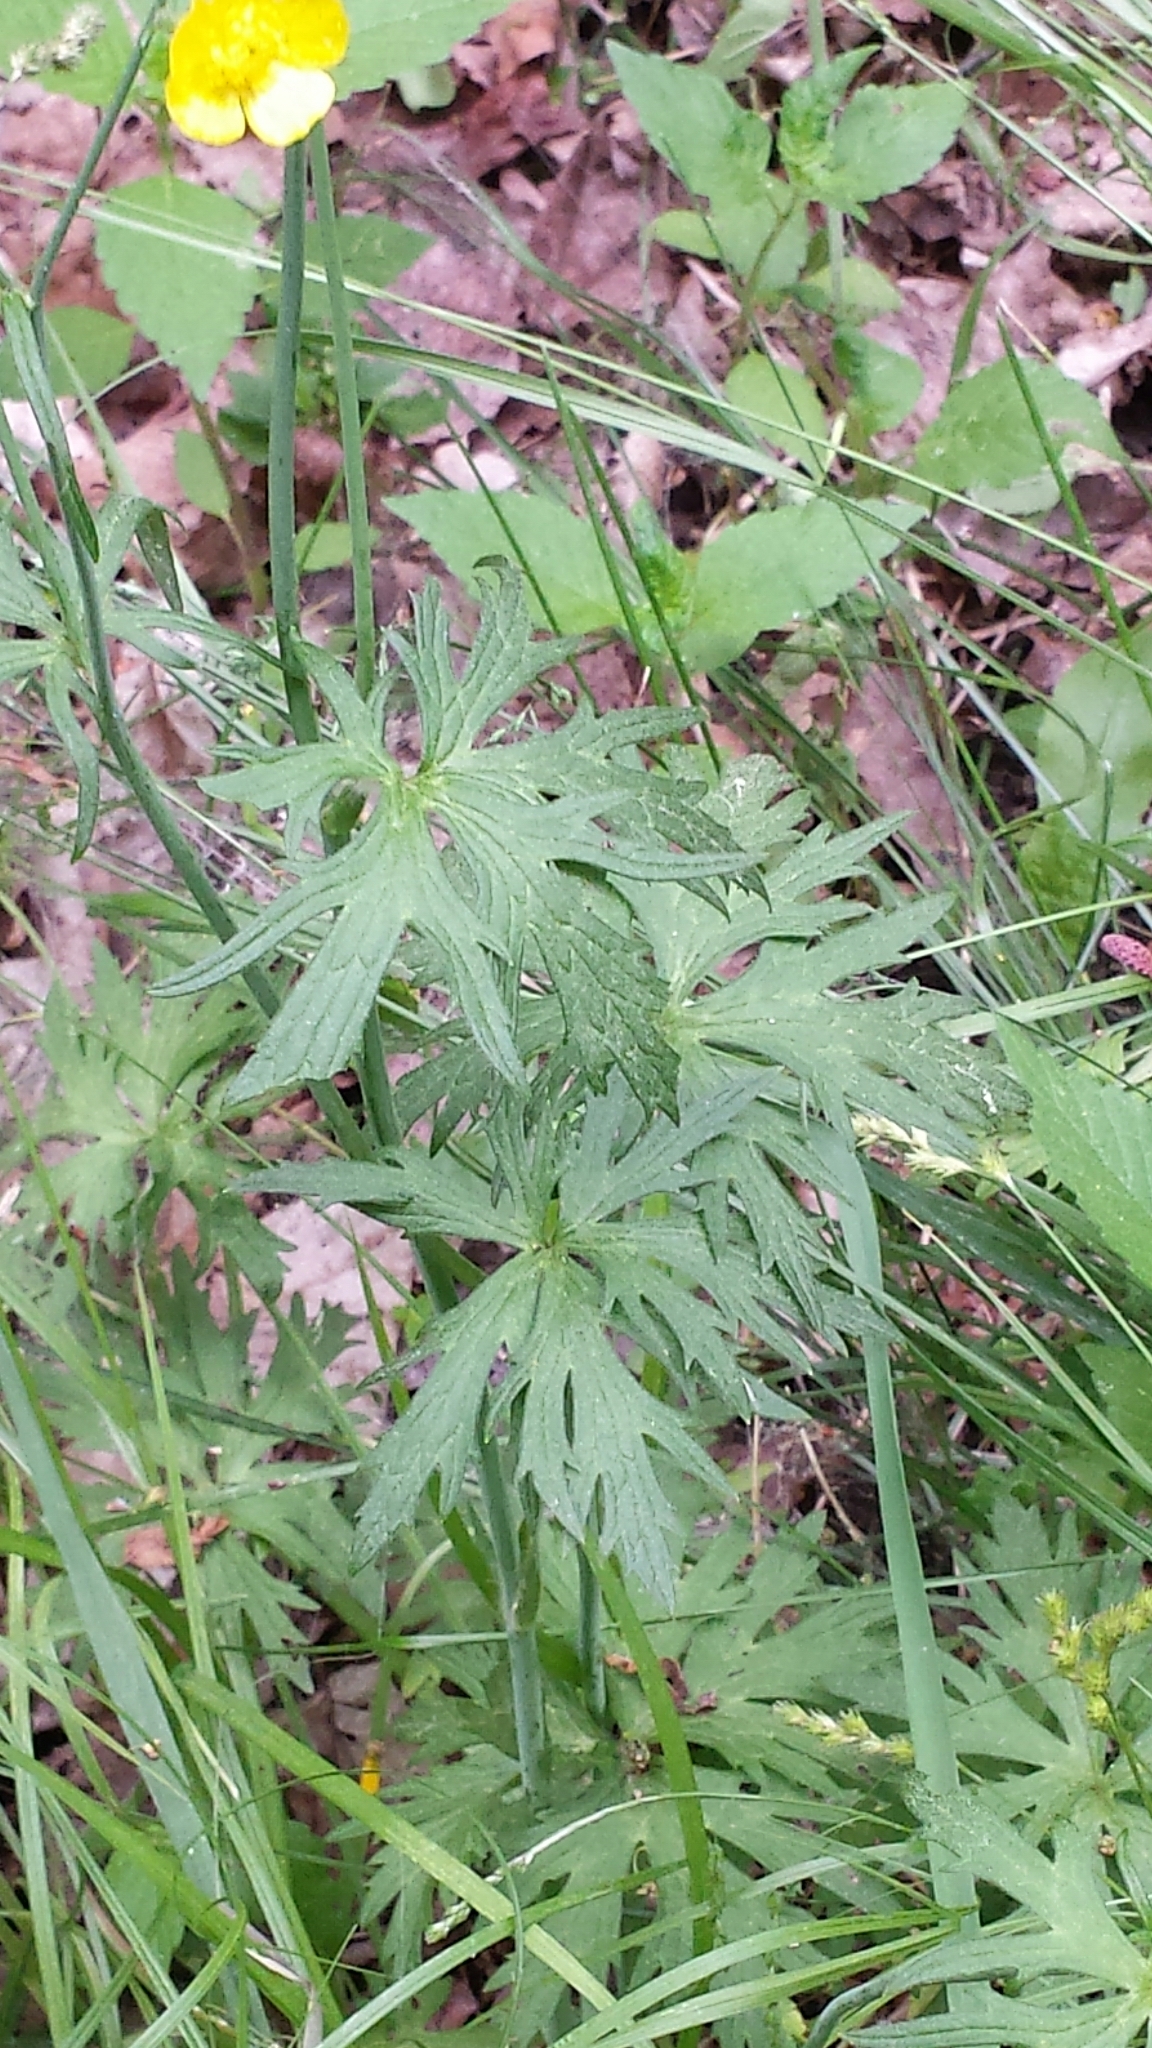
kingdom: Plantae
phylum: Tracheophyta
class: Magnoliopsida
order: Ranunculales
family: Ranunculaceae
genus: Ranunculus
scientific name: Ranunculus acris
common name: Meadow buttercup
